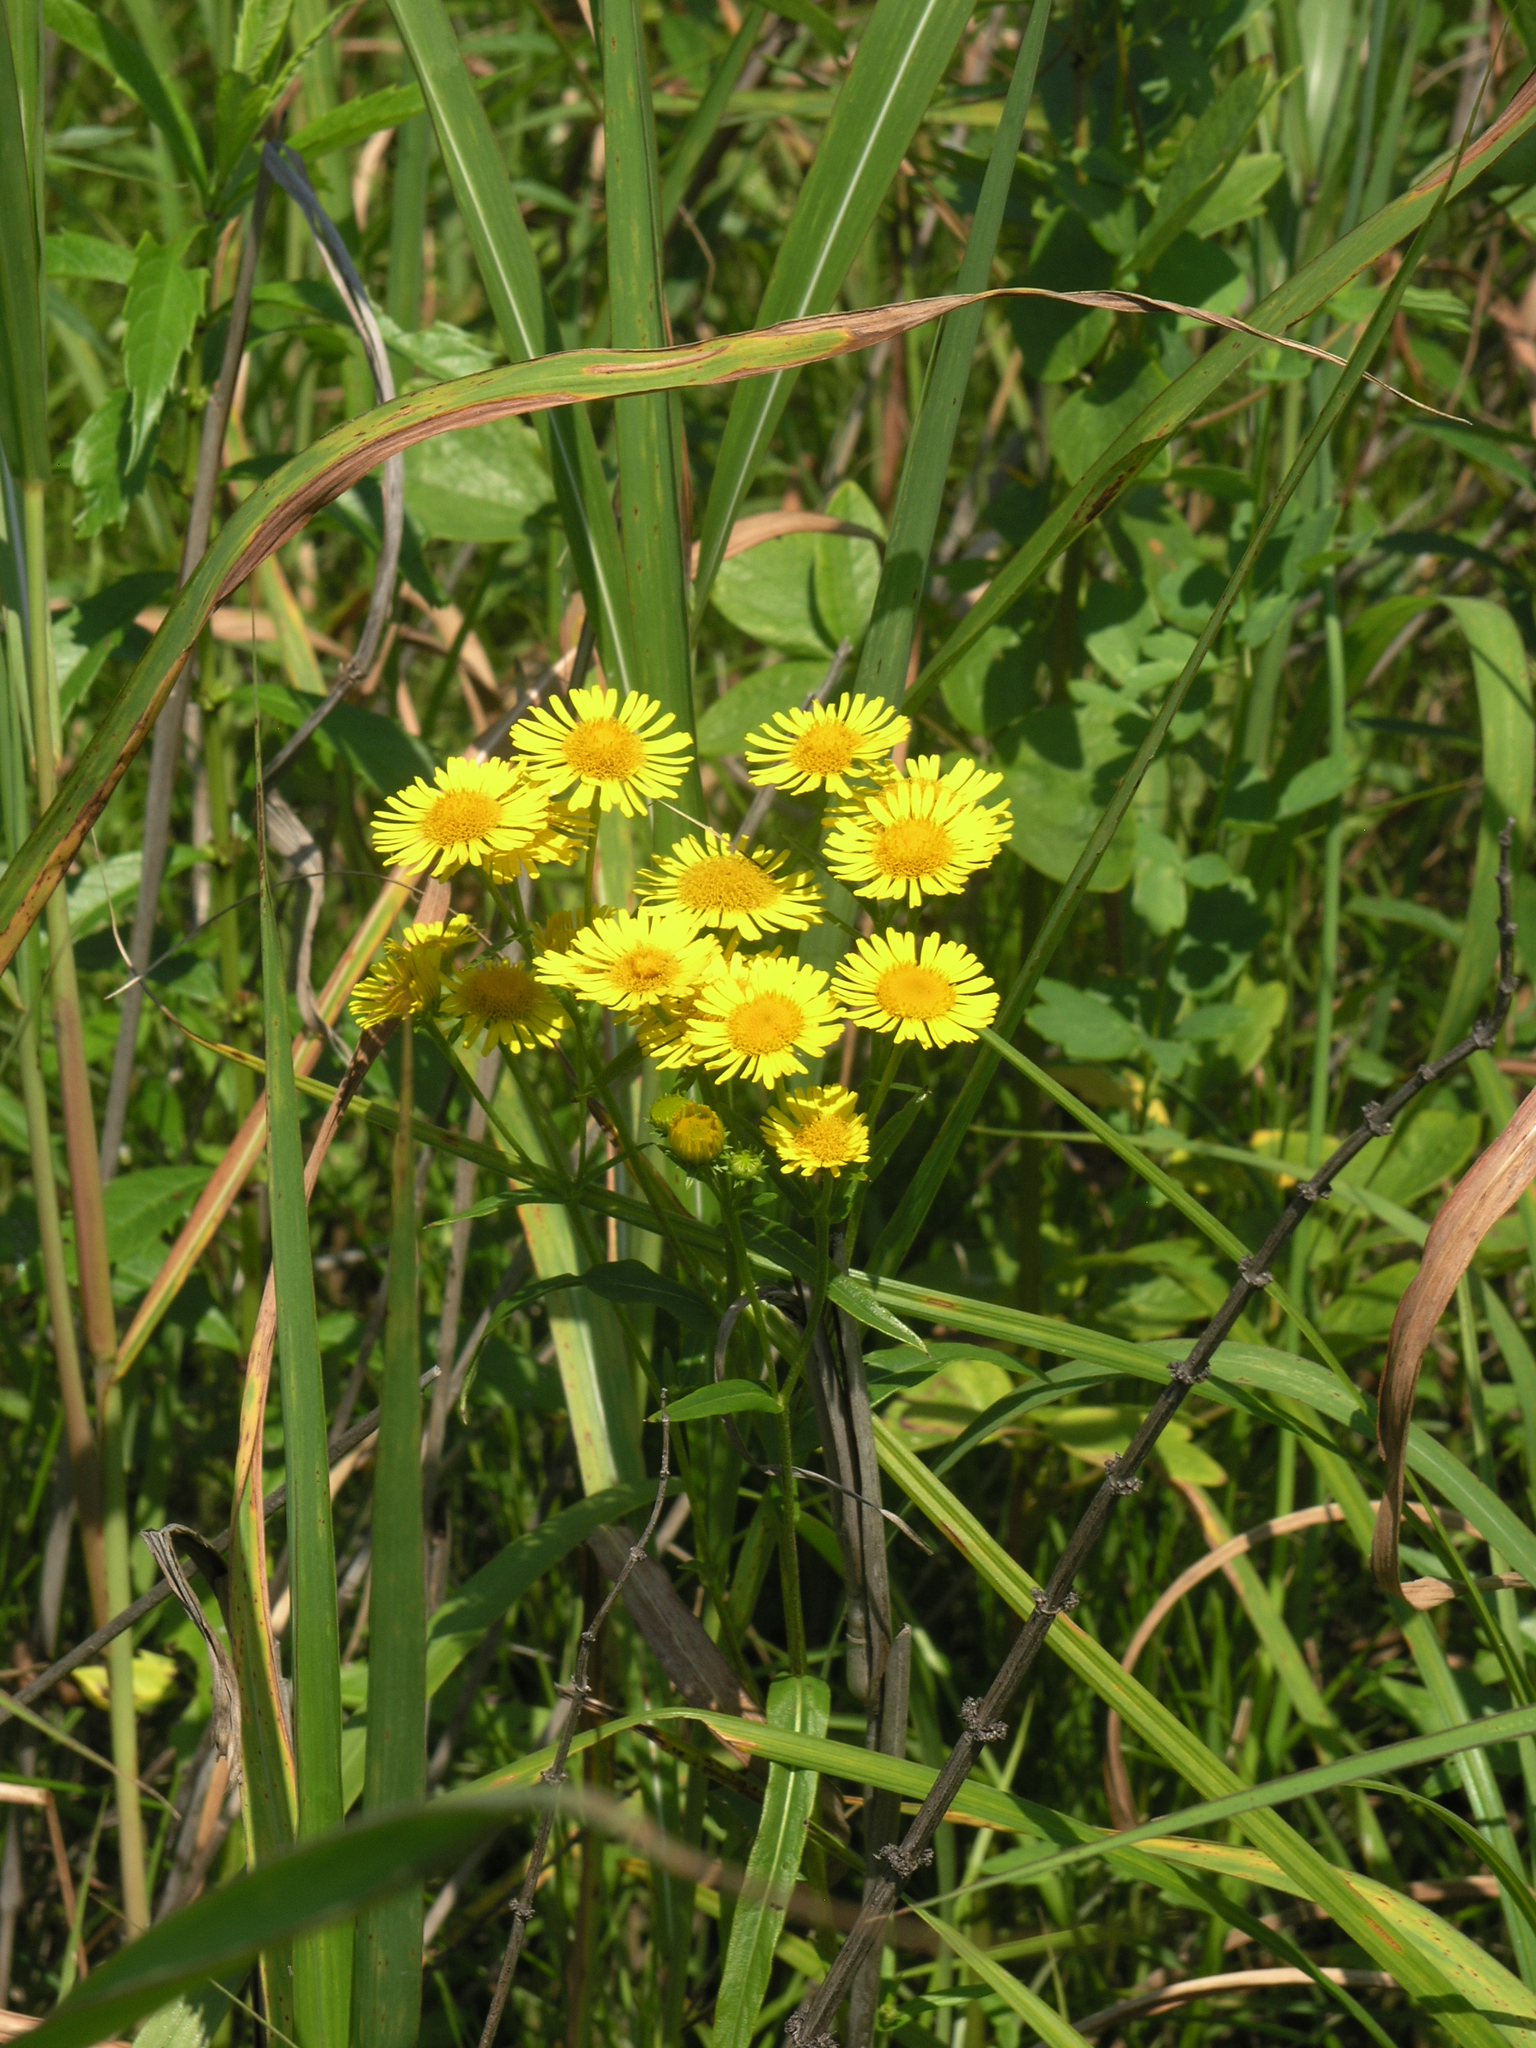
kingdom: Plantae
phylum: Tracheophyta
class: Magnoliopsida
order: Asterales
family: Asteraceae
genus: Inula
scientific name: Inula japonica
